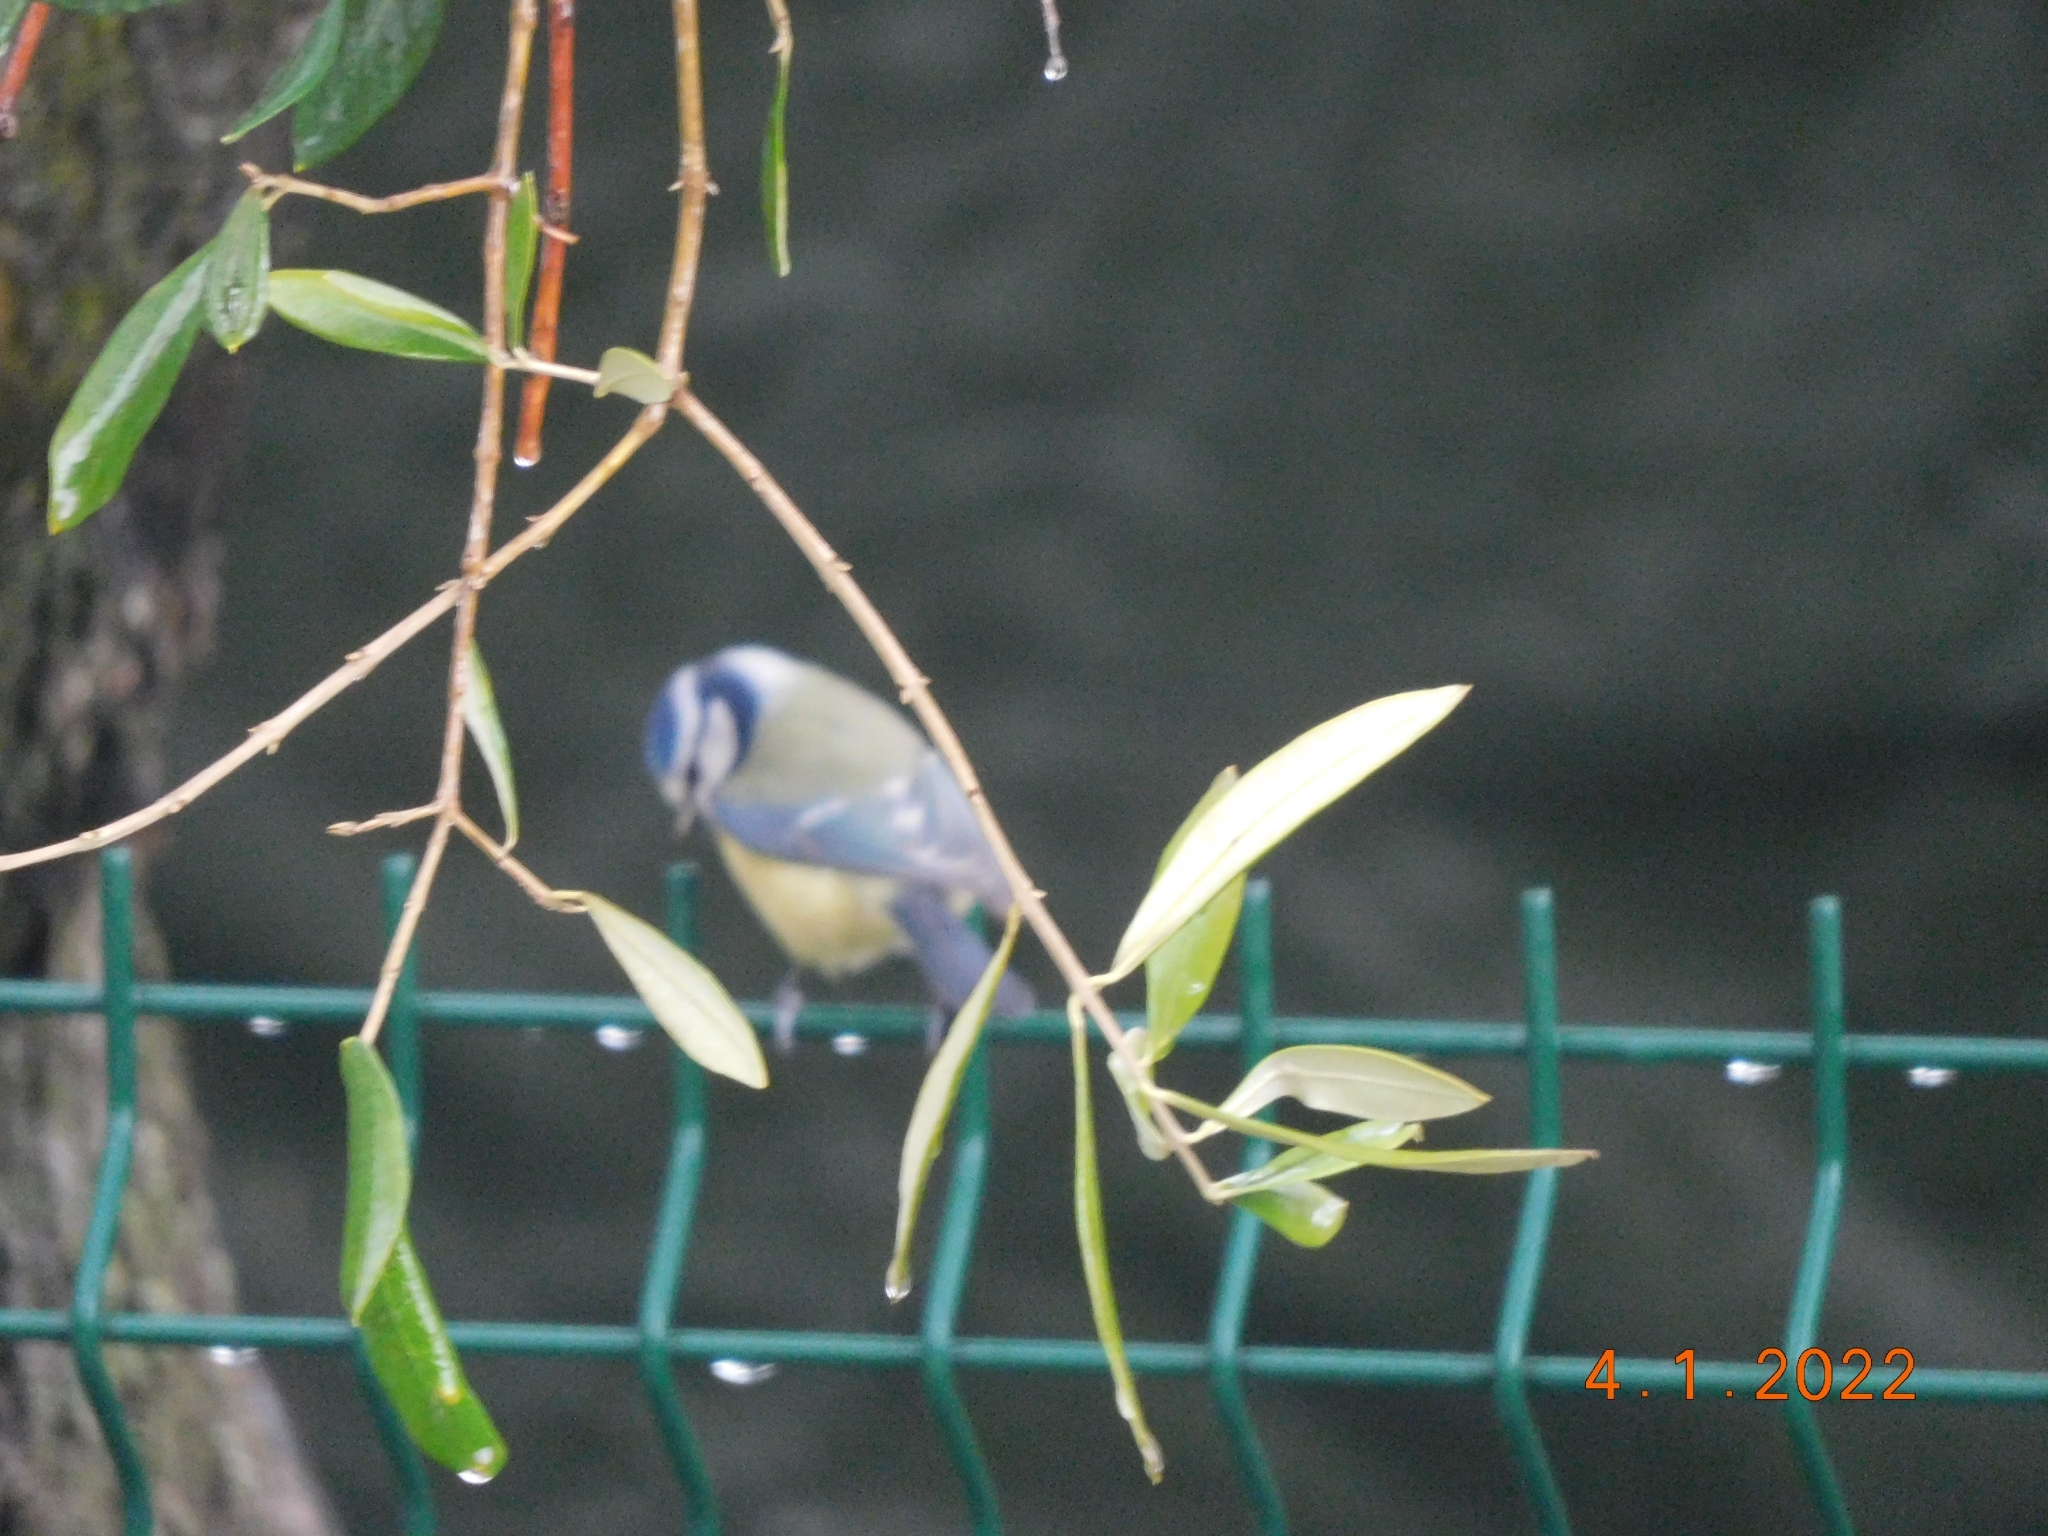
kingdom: Animalia
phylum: Chordata
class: Aves
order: Passeriformes
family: Paridae
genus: Cyanistes
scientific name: Cyanistes caeruleus
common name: Eurasian blue tit
